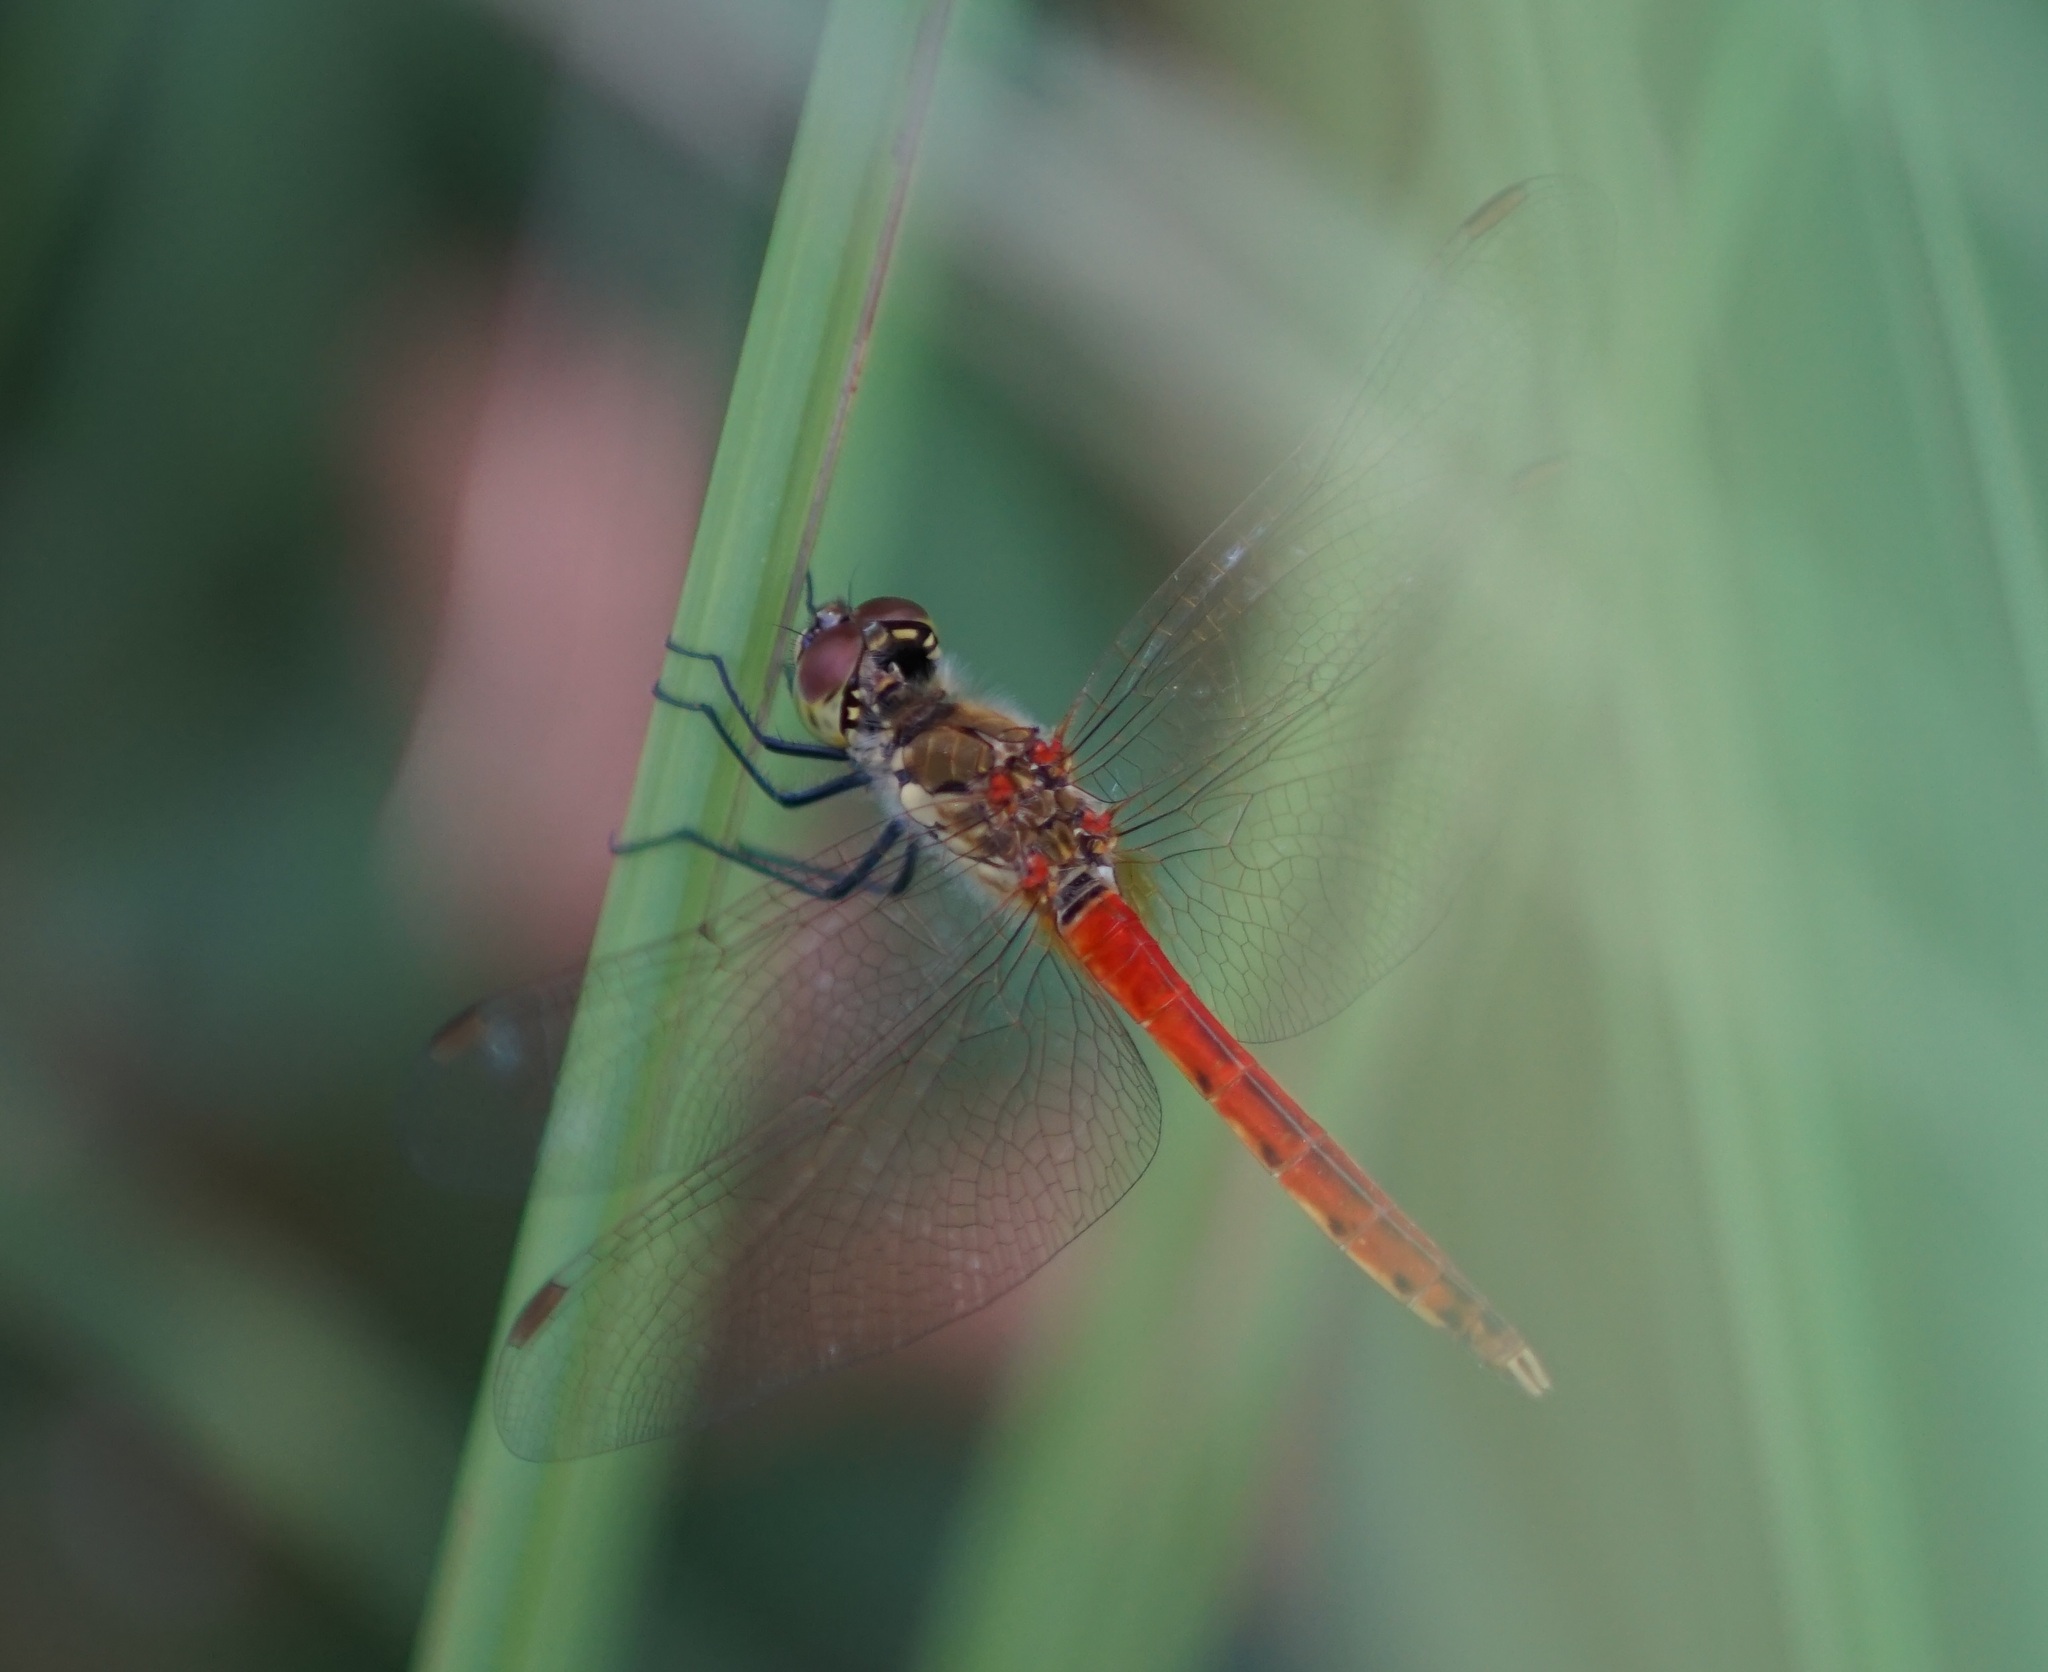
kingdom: Animalia
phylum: Arthropoda
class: Insecta
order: Odonata
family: Libellulidae
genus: Sympetrum
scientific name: Sympetrum depressiusculum
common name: Spotted darter
